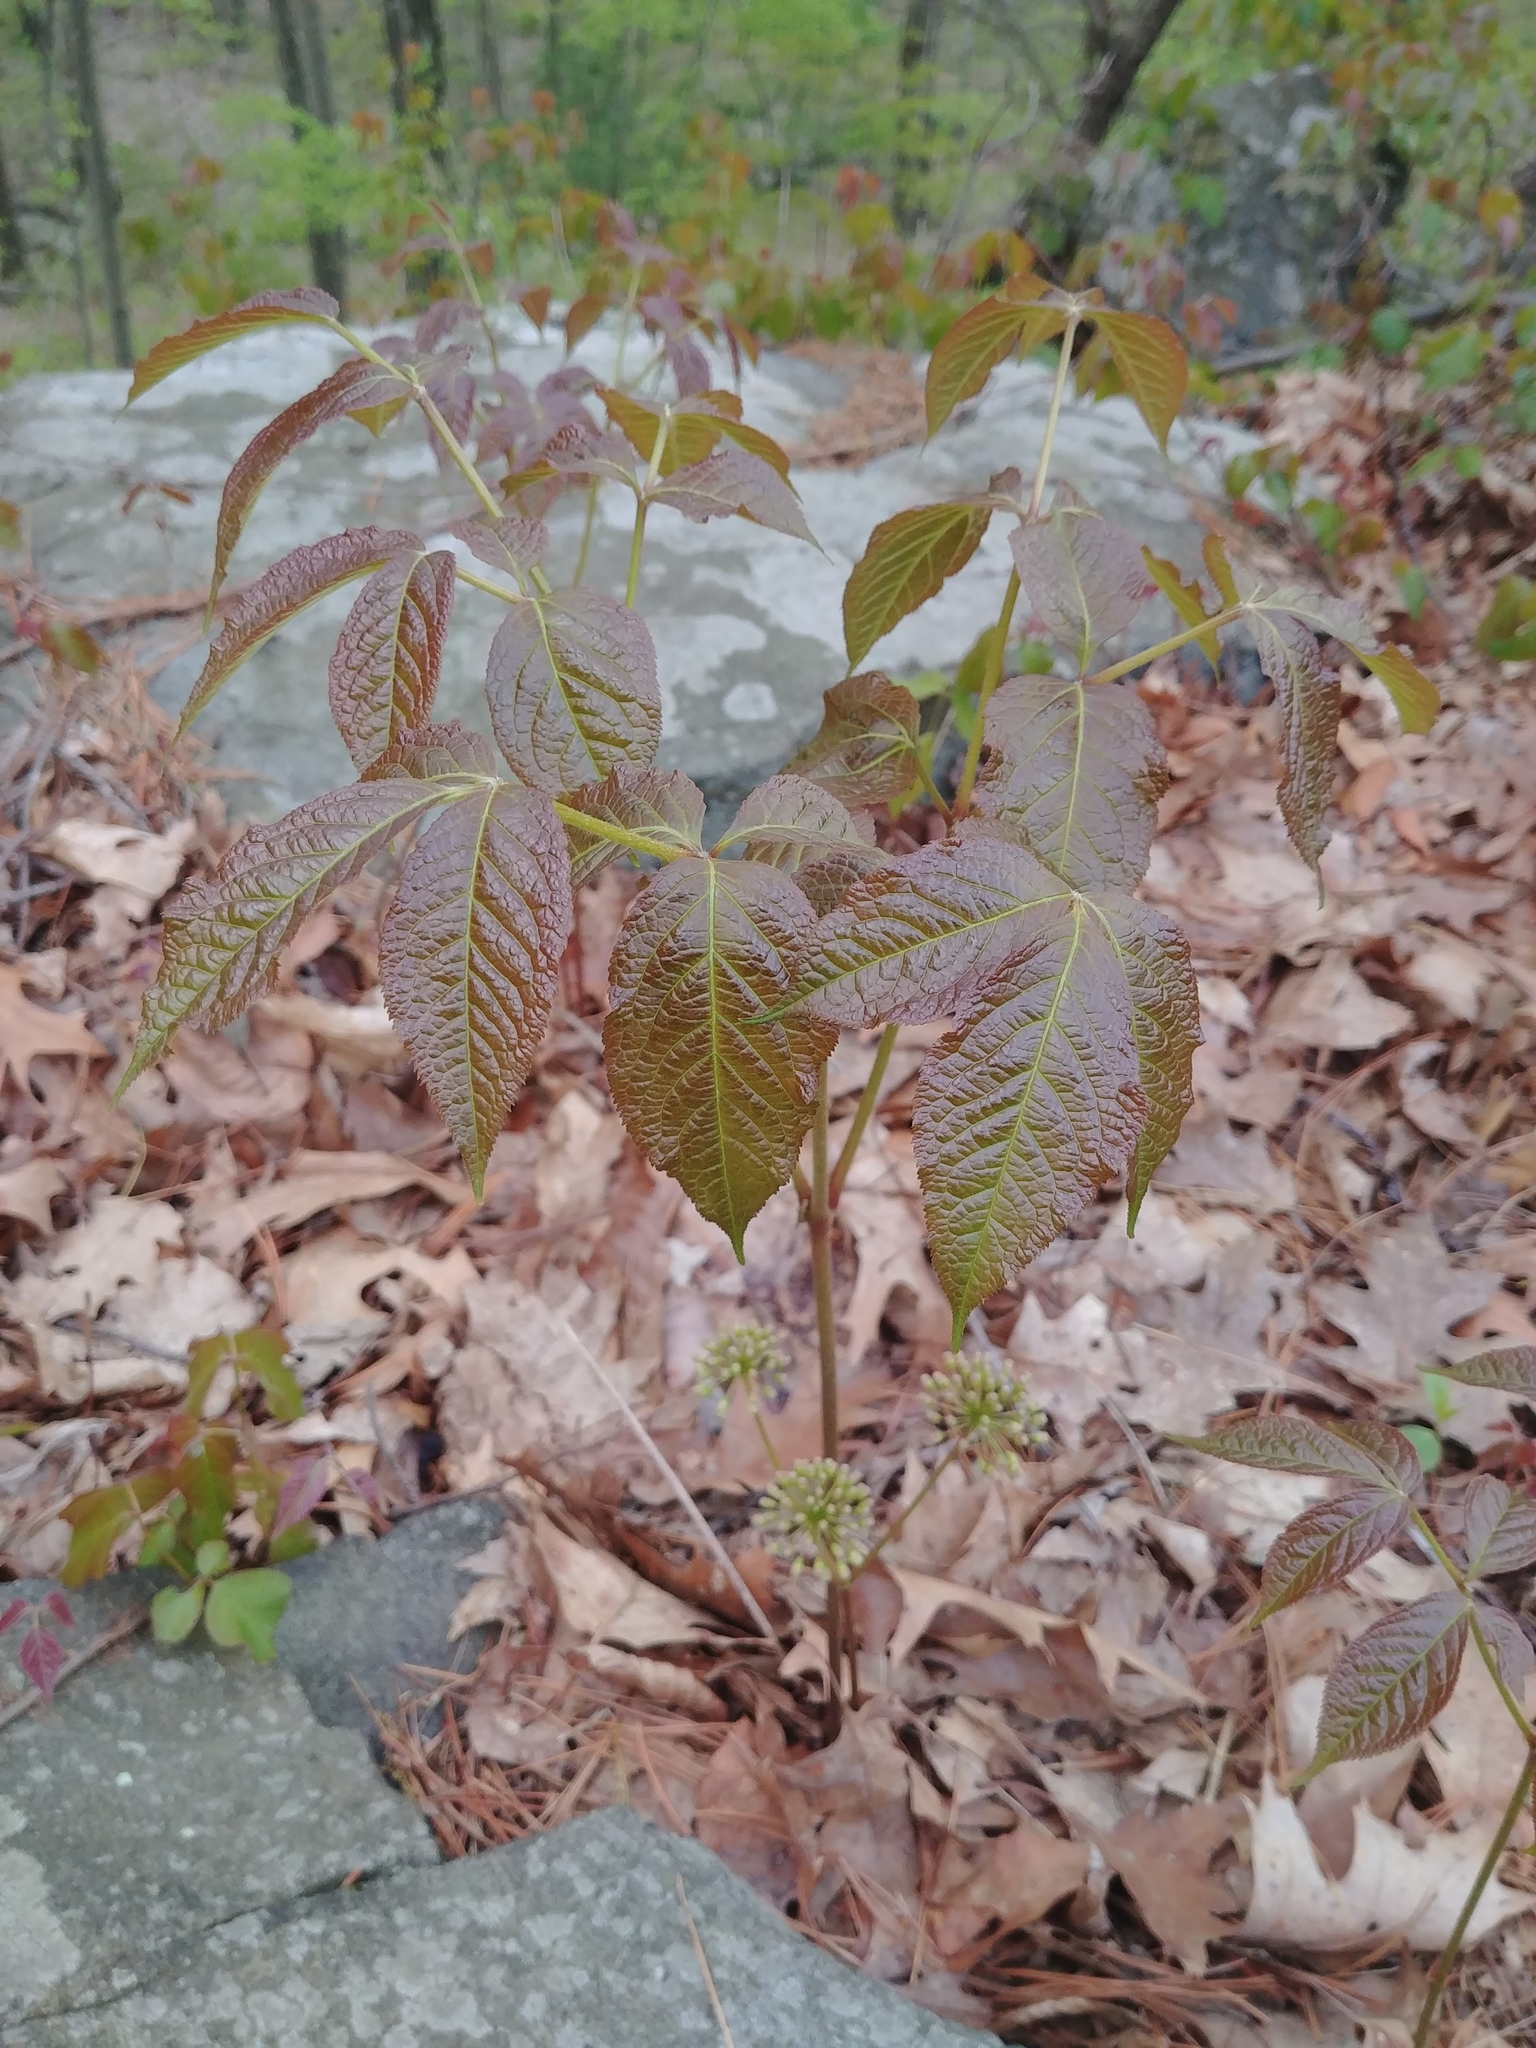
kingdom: Plantae
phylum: Tracheophyta
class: Magnoliopsida
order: Apiales
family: Araliaceae
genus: Aralia
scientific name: Aralia nudicaulis
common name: Wild sarsaparilla
